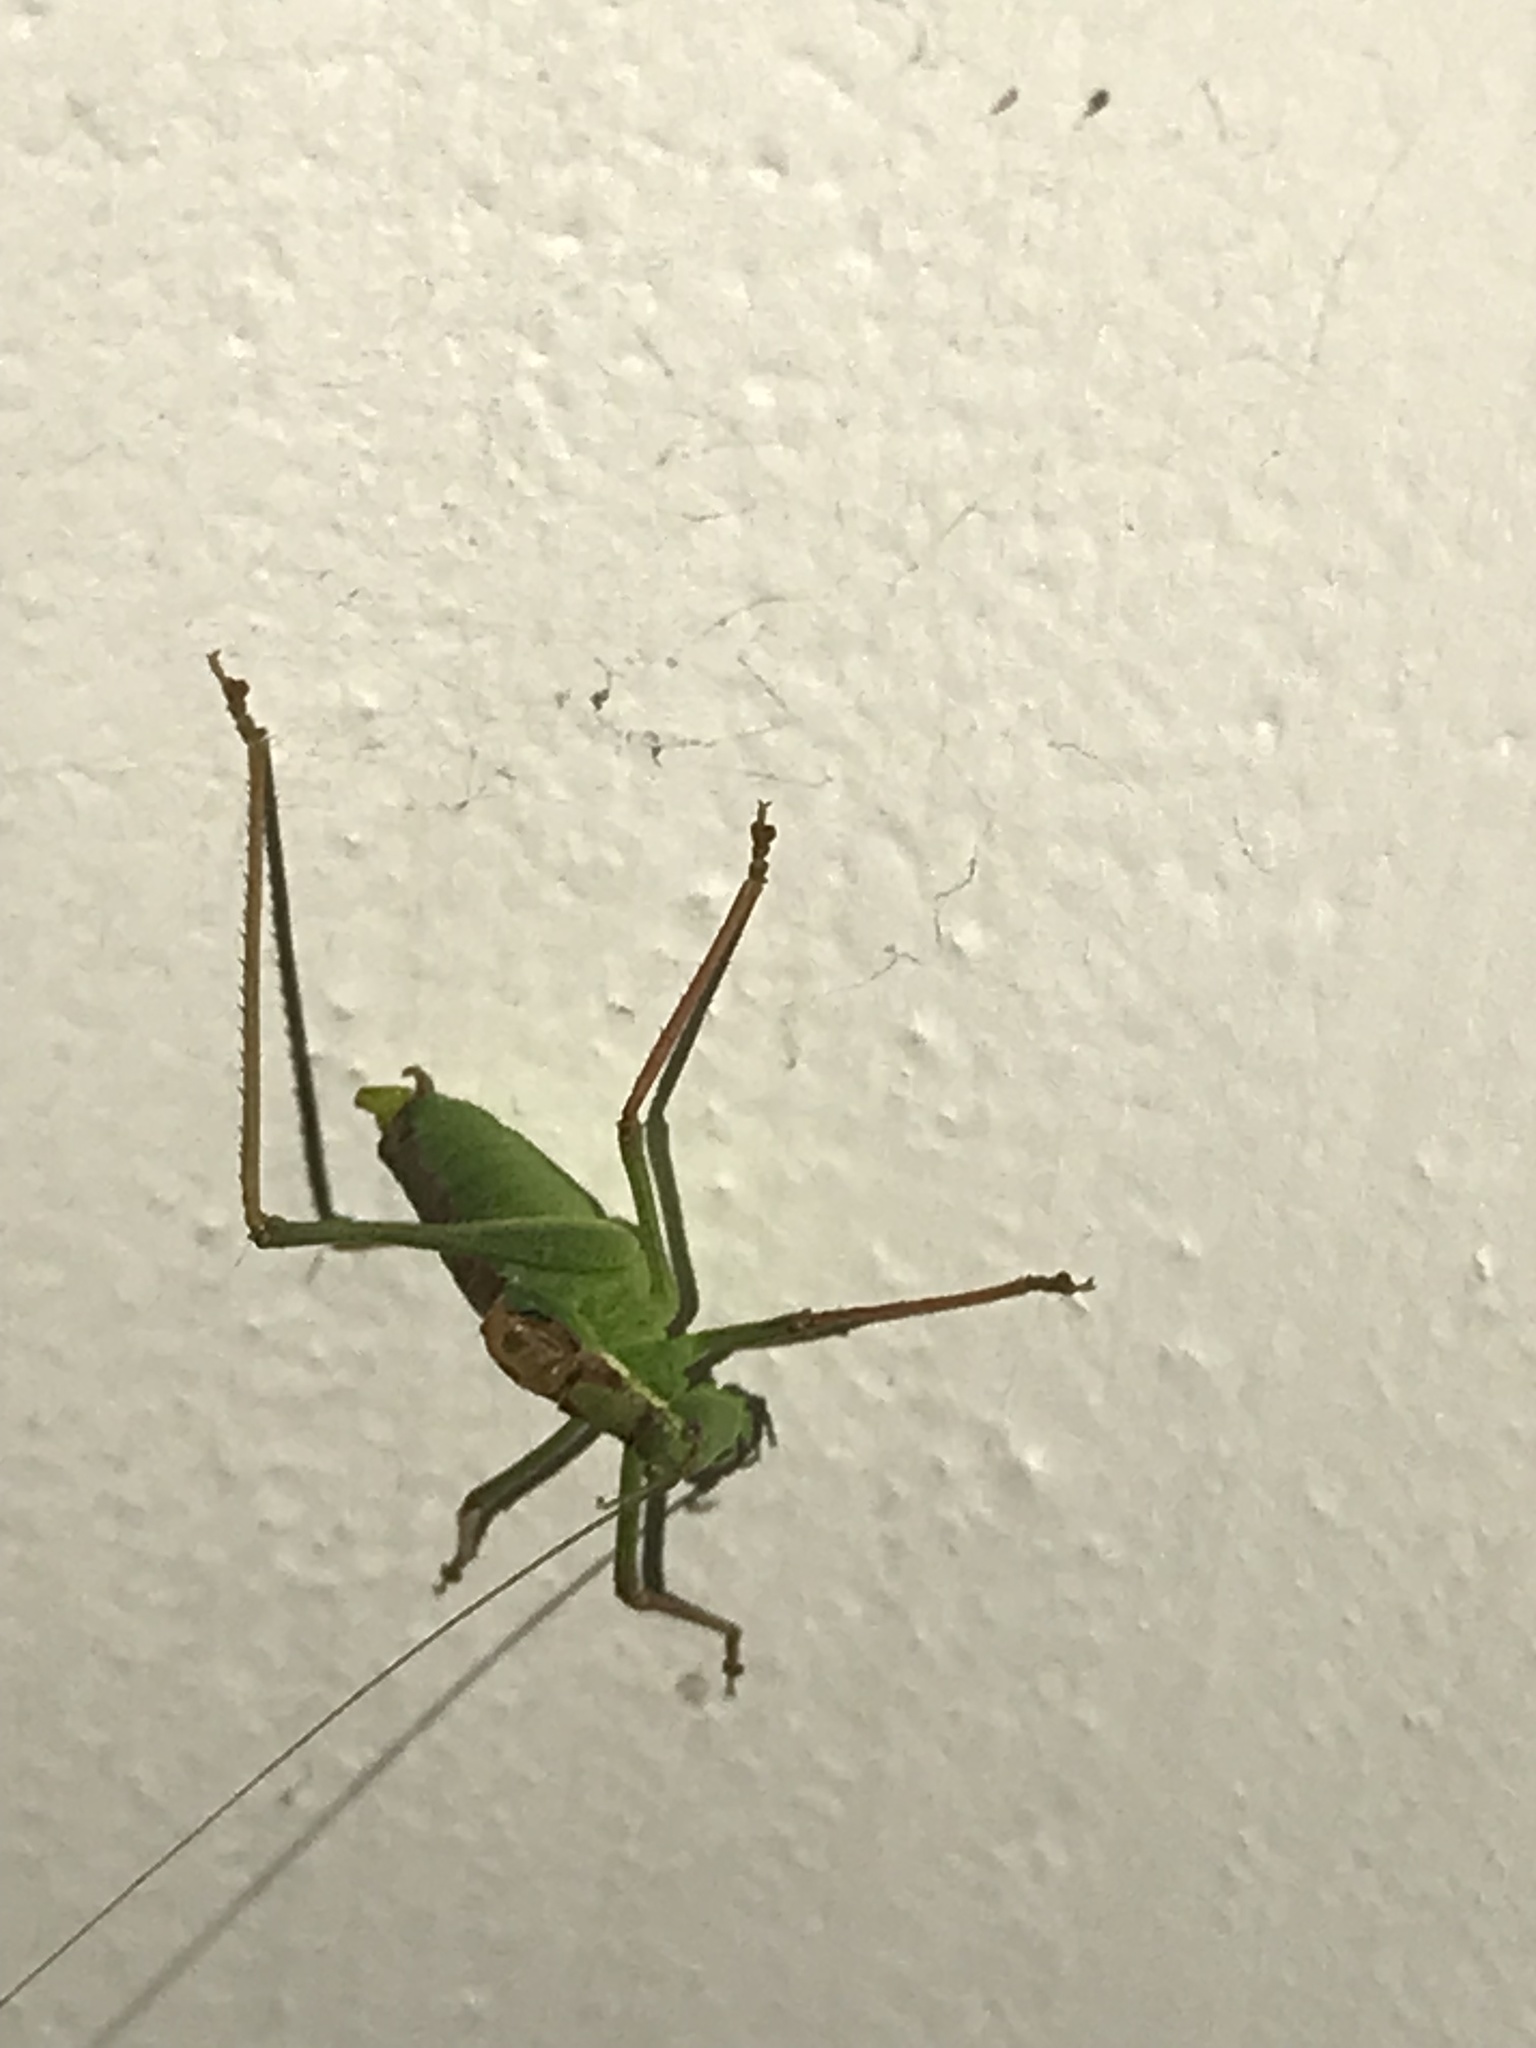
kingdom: Animalia
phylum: Arthropoda
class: Insecta
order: Orthoptera
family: Tettigoniidae
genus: Leptophyes
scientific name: Leptophyes punctatissima
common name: Speckled bush-cricket
